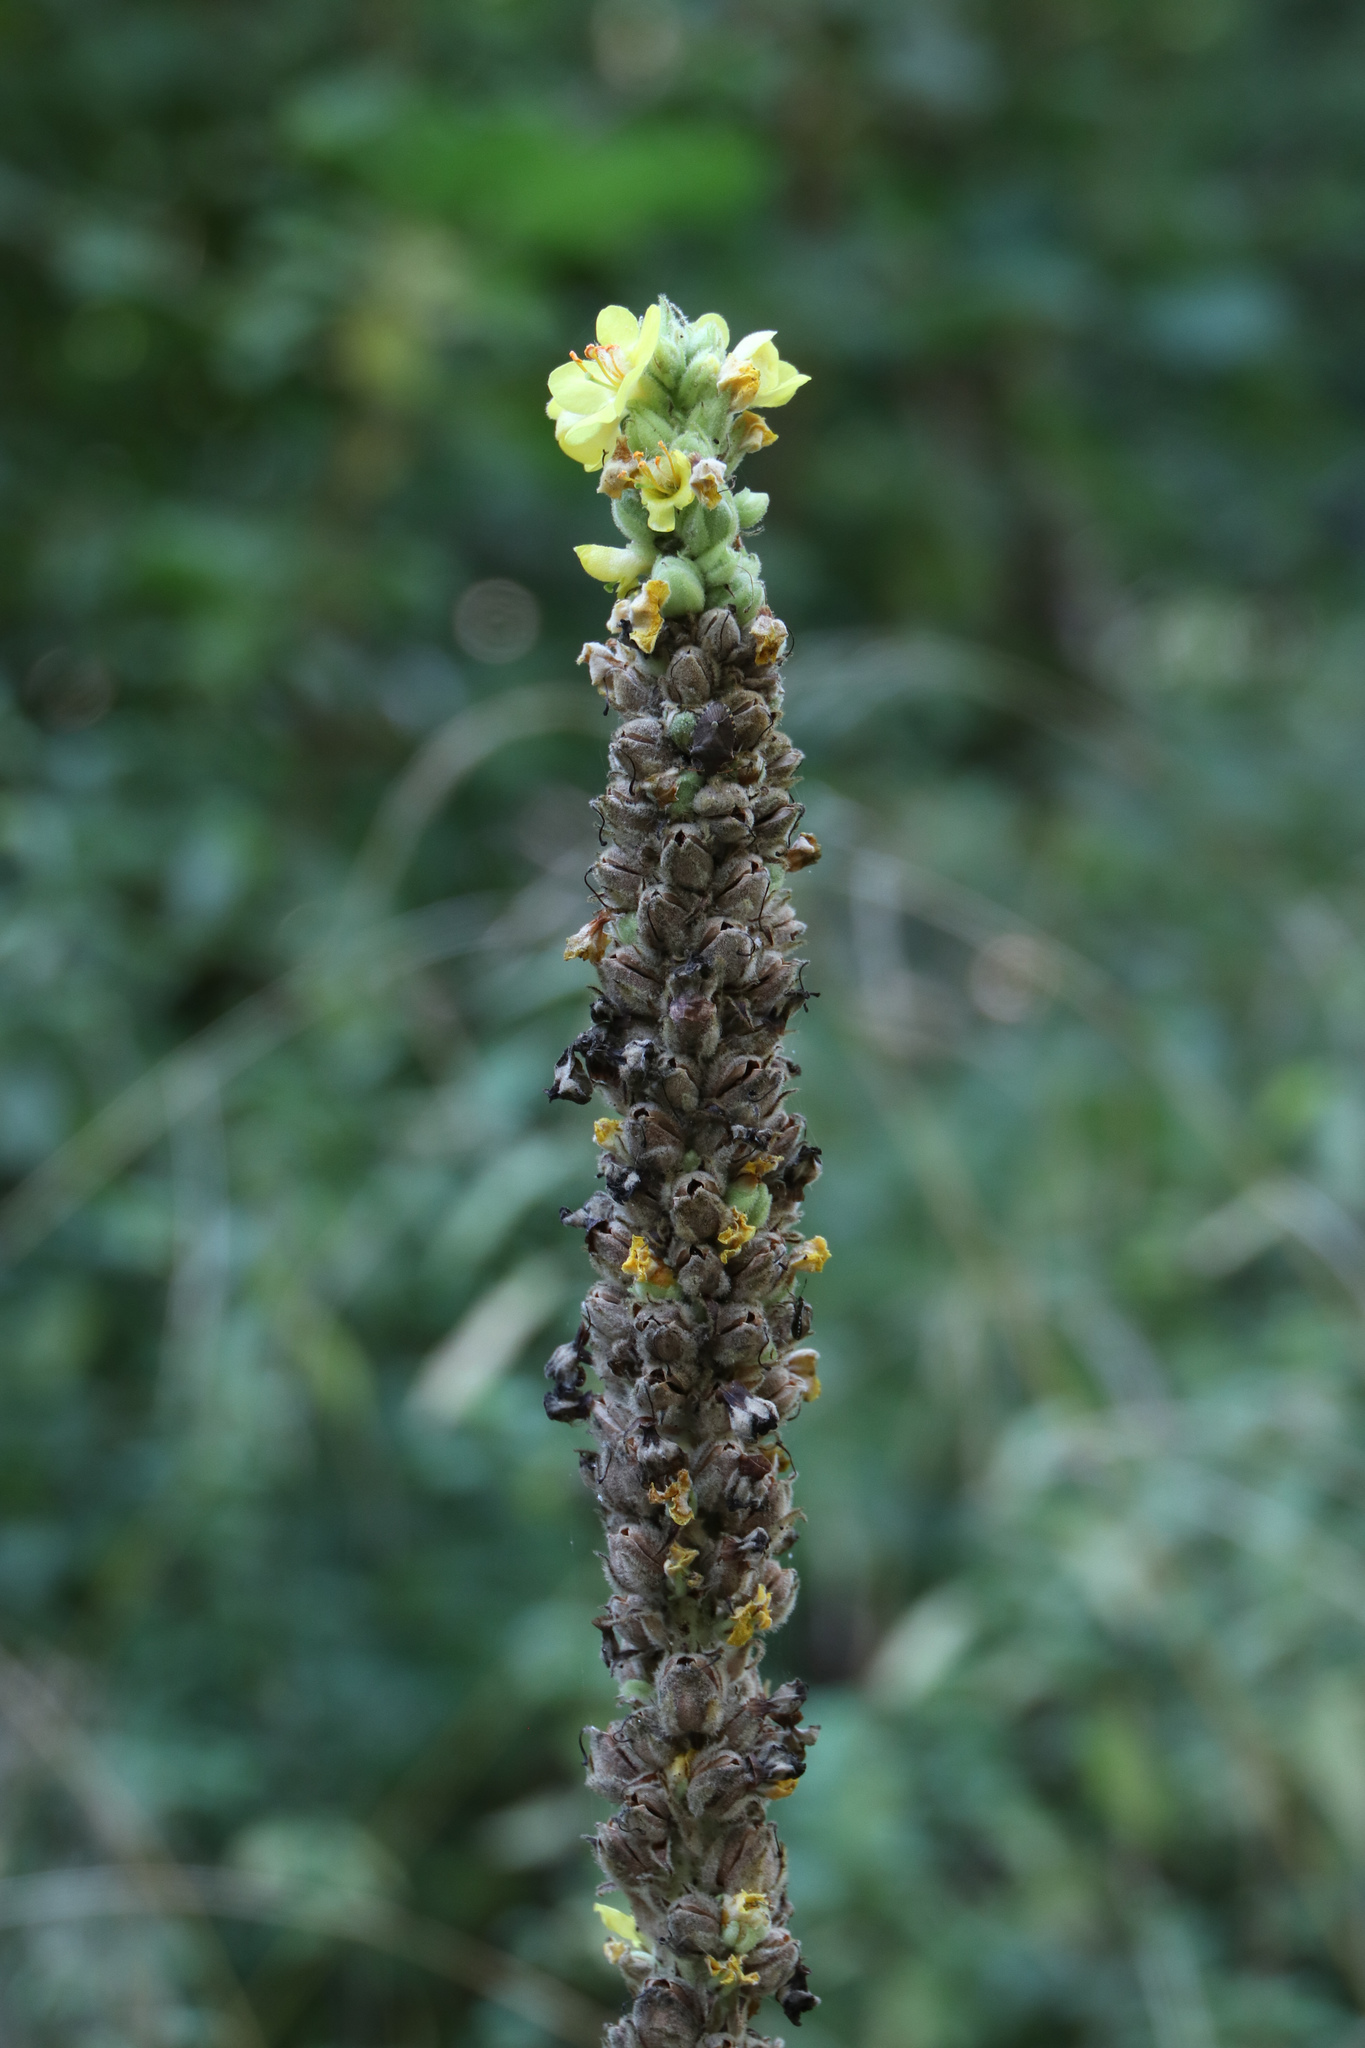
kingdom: Plantae
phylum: Tracheophyta
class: Magnoliopsida
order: Lamiales
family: Scrophulariaceae
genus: Verbascum
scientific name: Verbascum thapsus
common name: Common mullein
